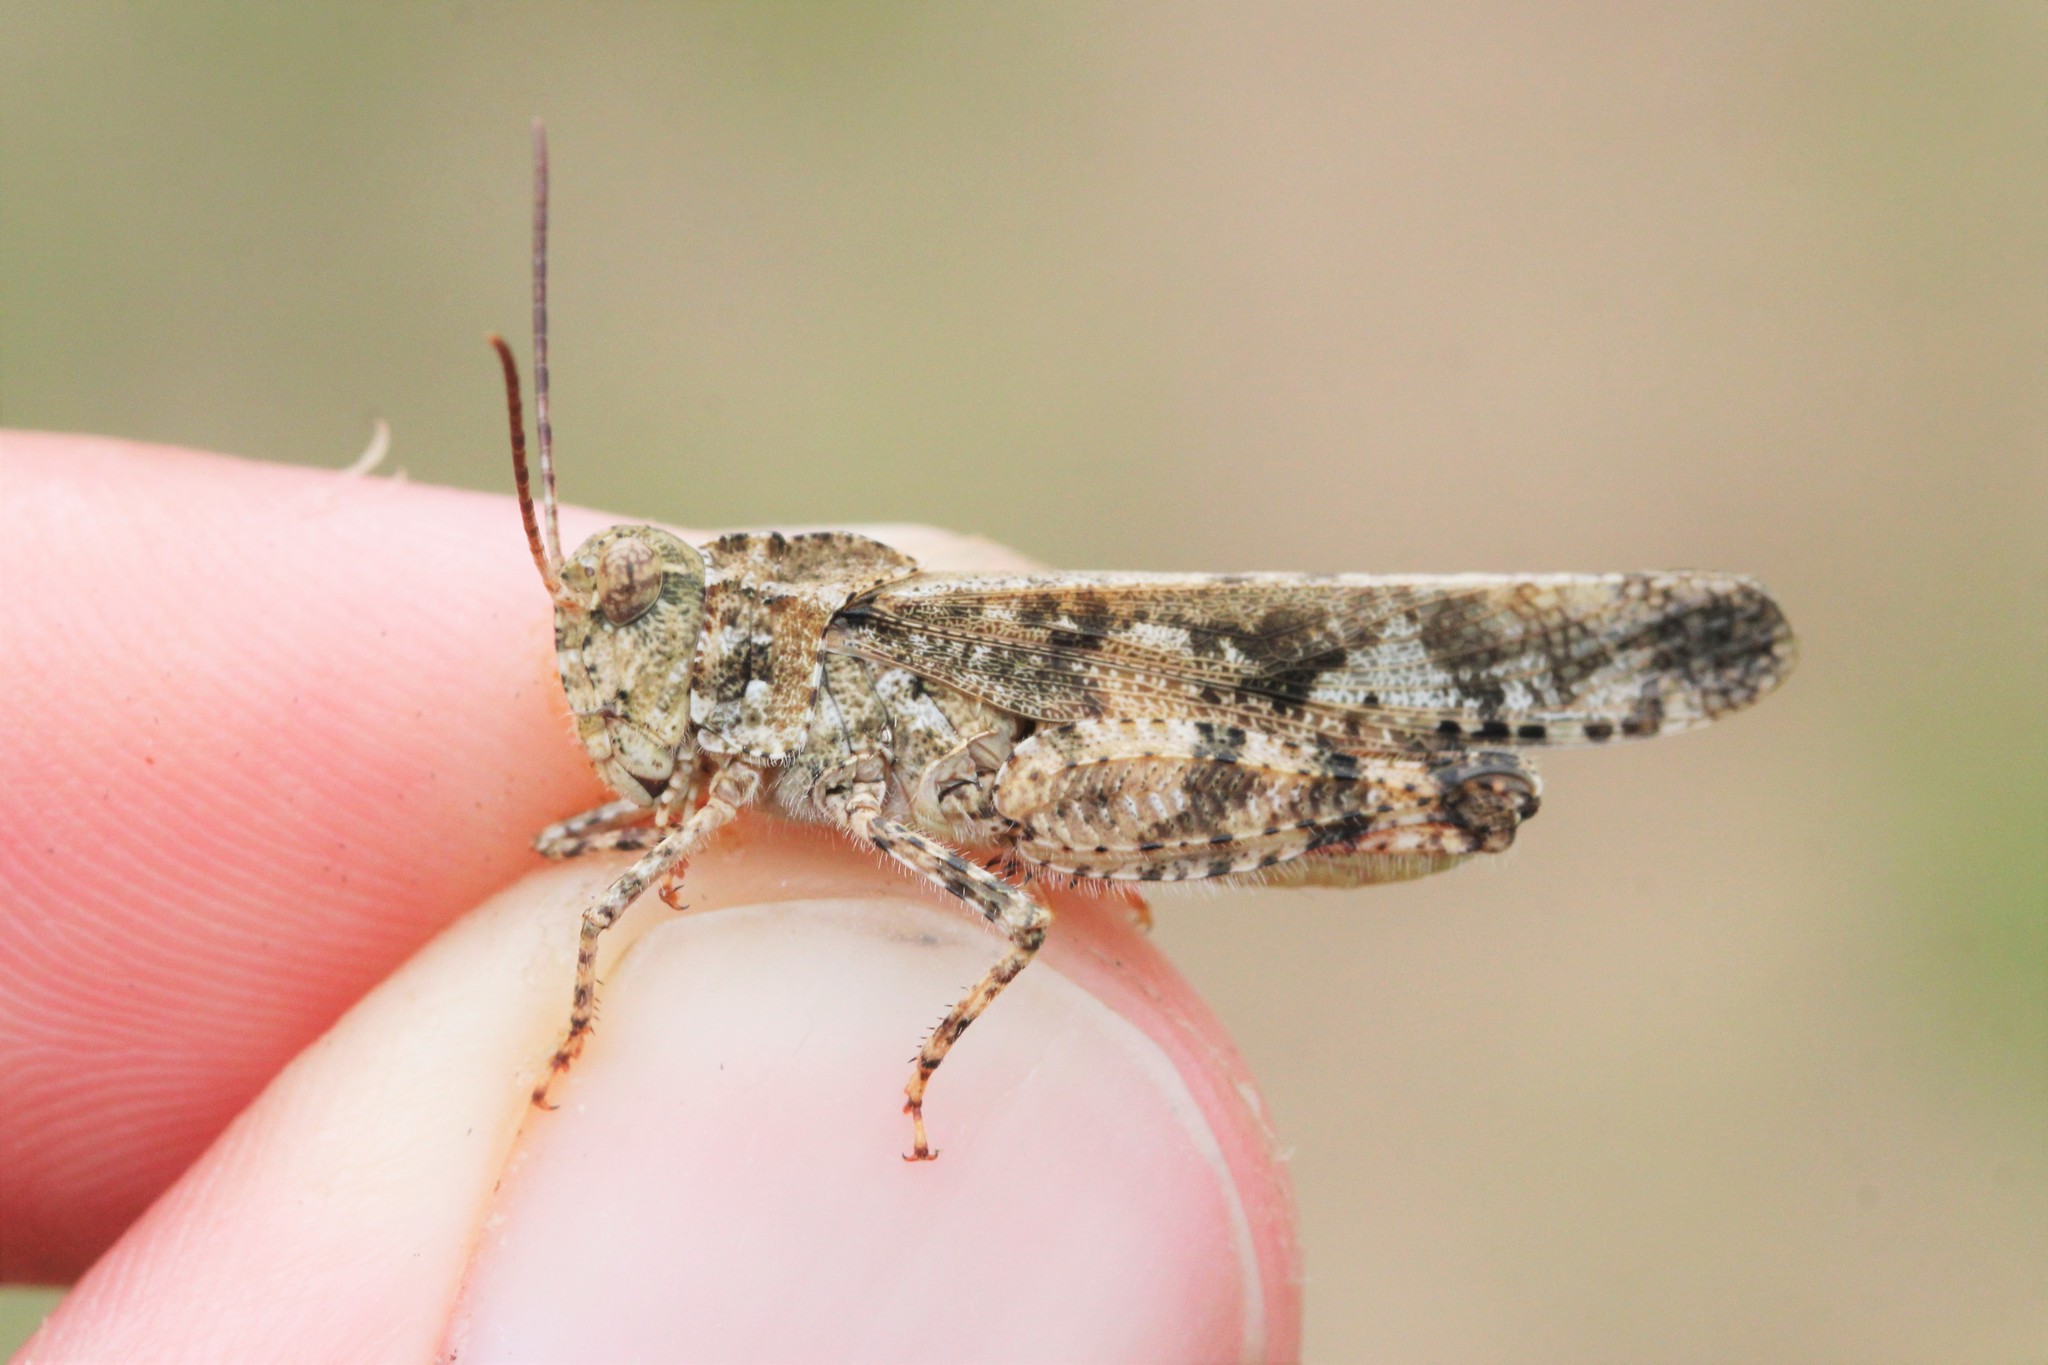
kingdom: Animalia
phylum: Arthropoda
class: Insecta
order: Orthoptera
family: Acrididae
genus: Spharagemon
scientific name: Spharagemon collare
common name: Mottled sand grasshopper
